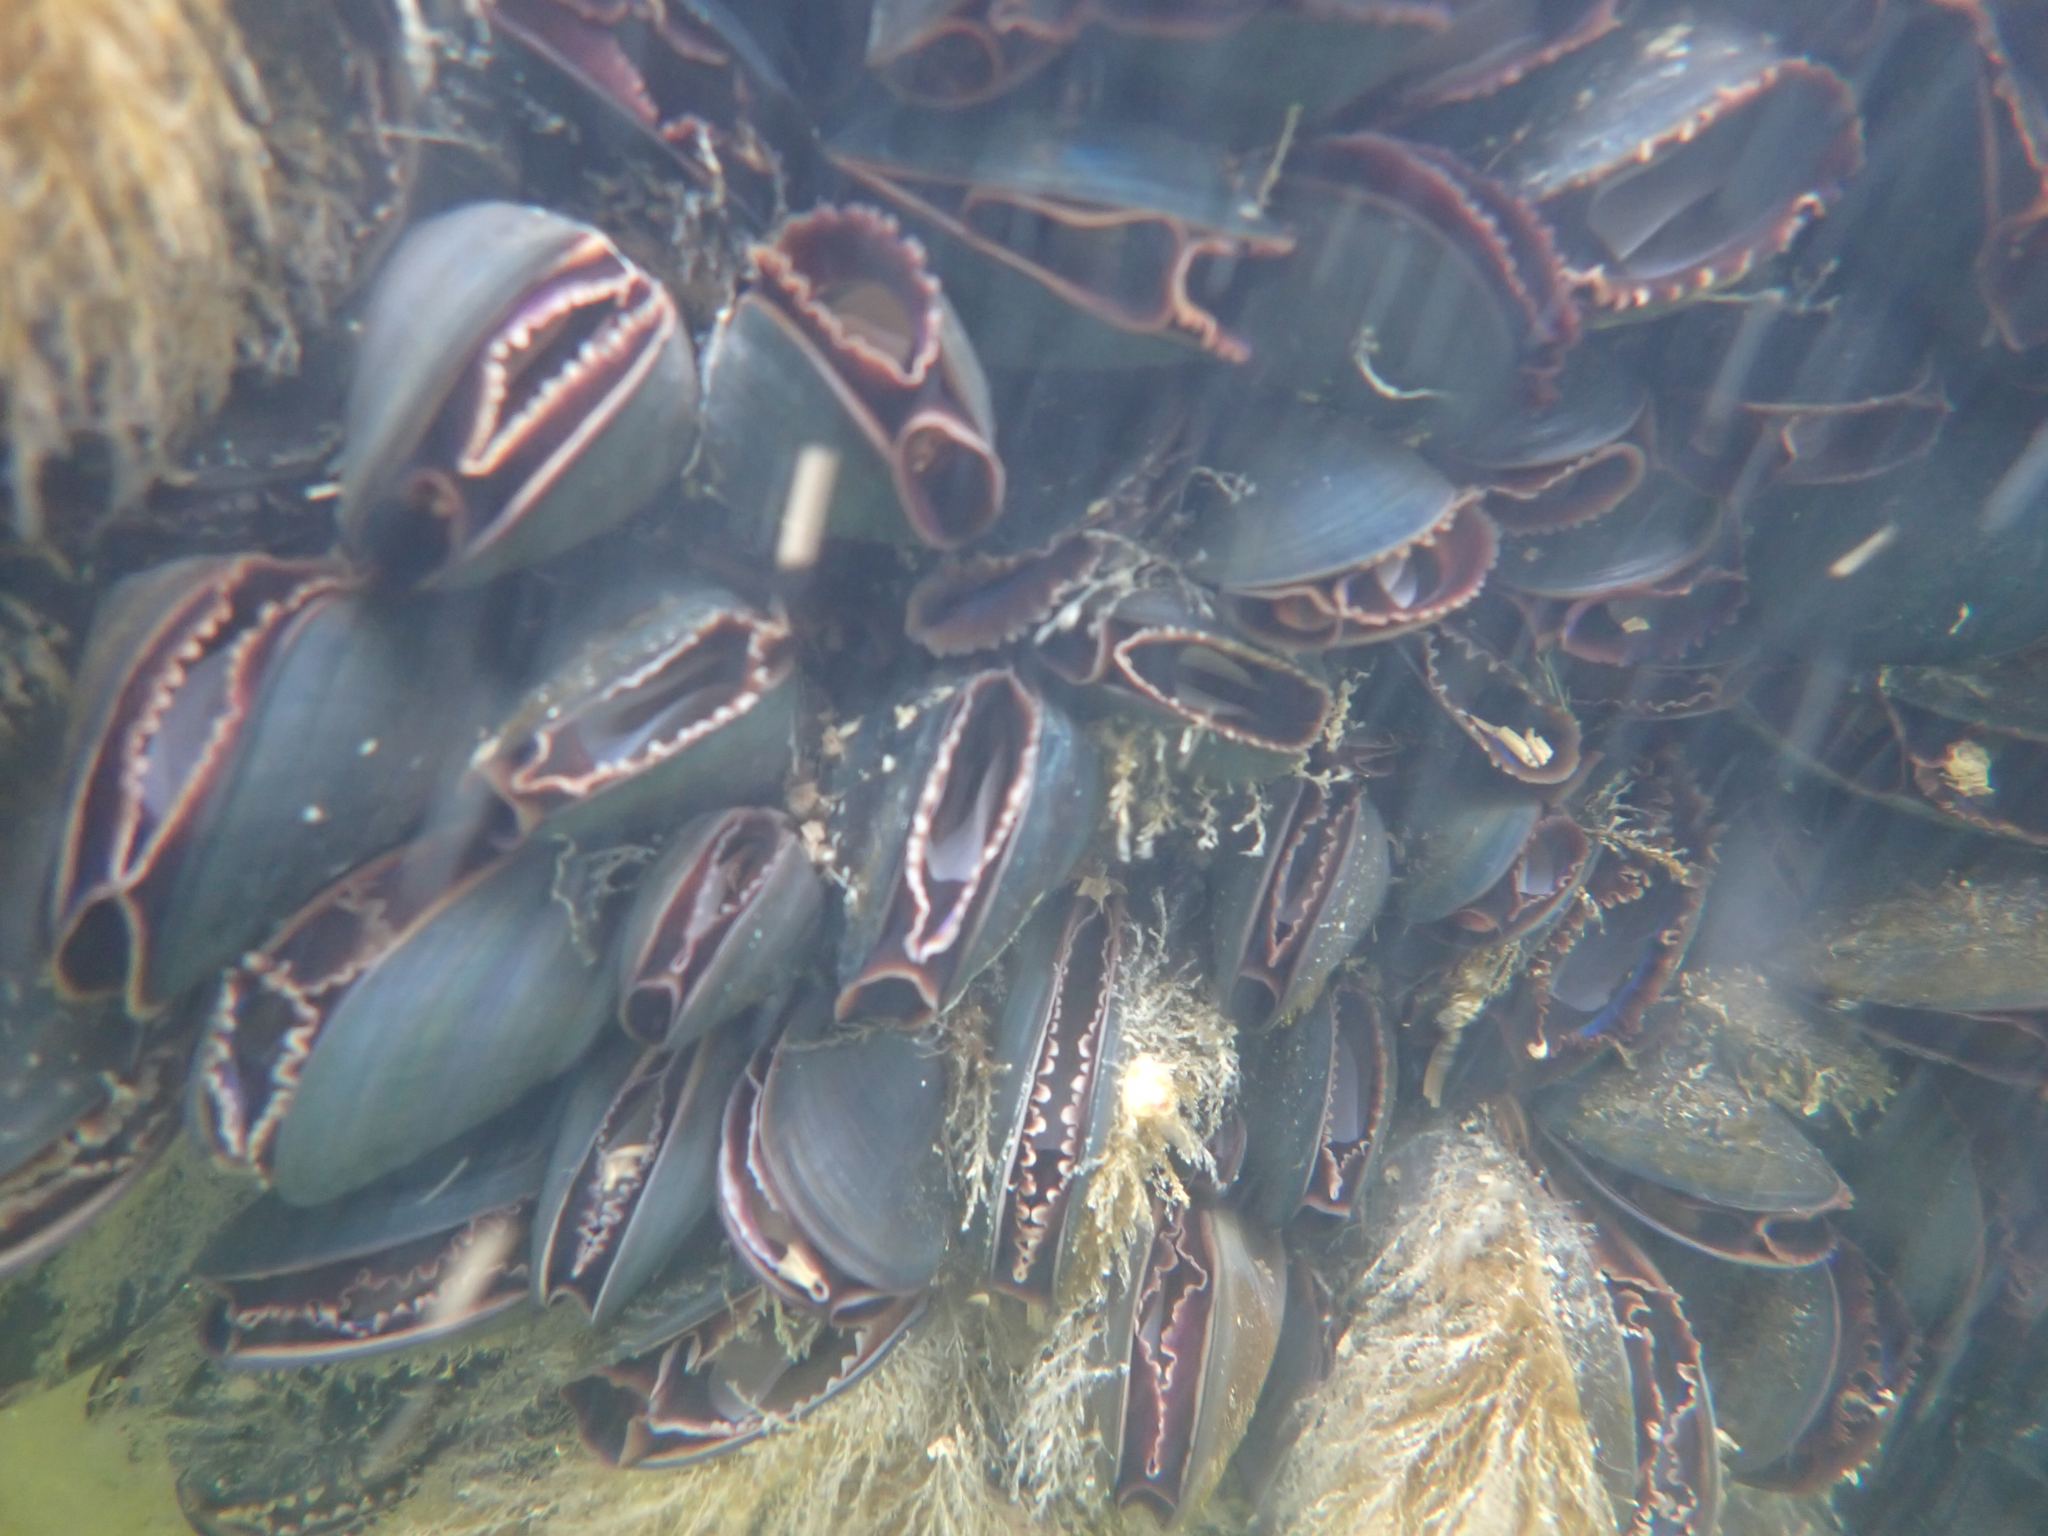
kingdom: Animalia
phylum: Mollusca
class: Bivalvia
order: Mytilida
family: Mytilidae
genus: Mytilus
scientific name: Mytilus
